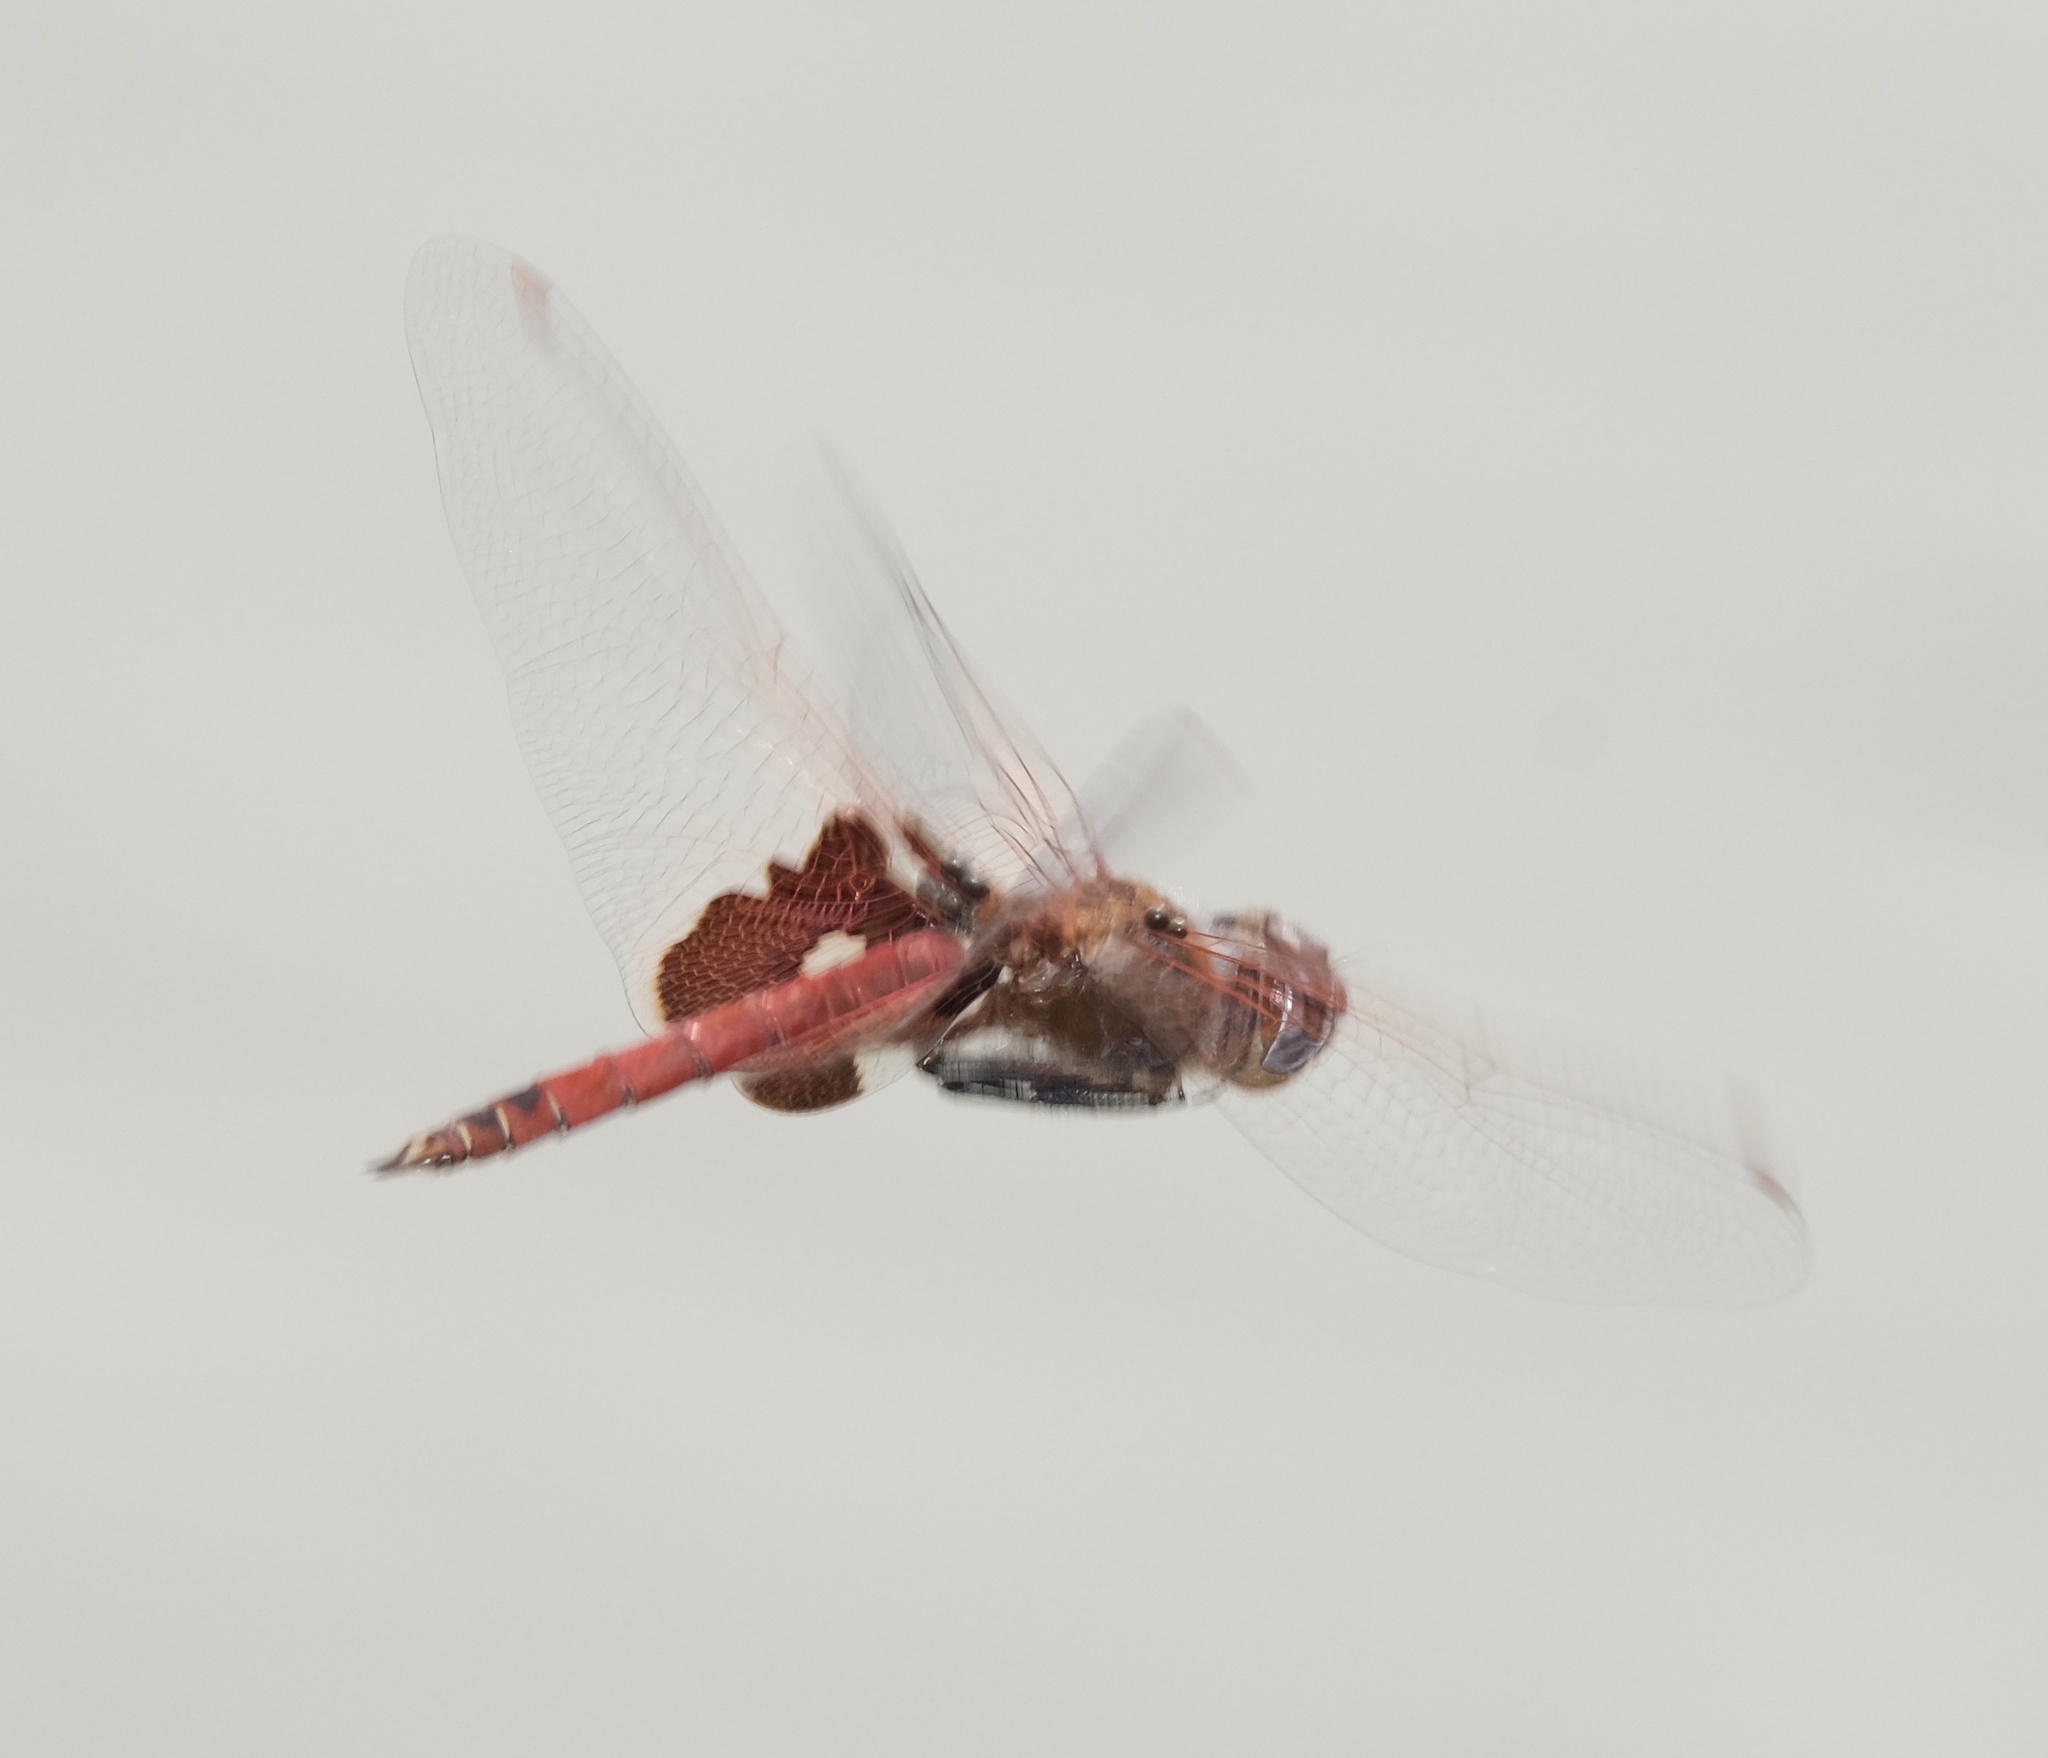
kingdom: Animalia
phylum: Arthropoda
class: Insecta
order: Odonata
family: Libellulidae
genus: Tramea
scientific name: Tramea onusta
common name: Red saddlebags
